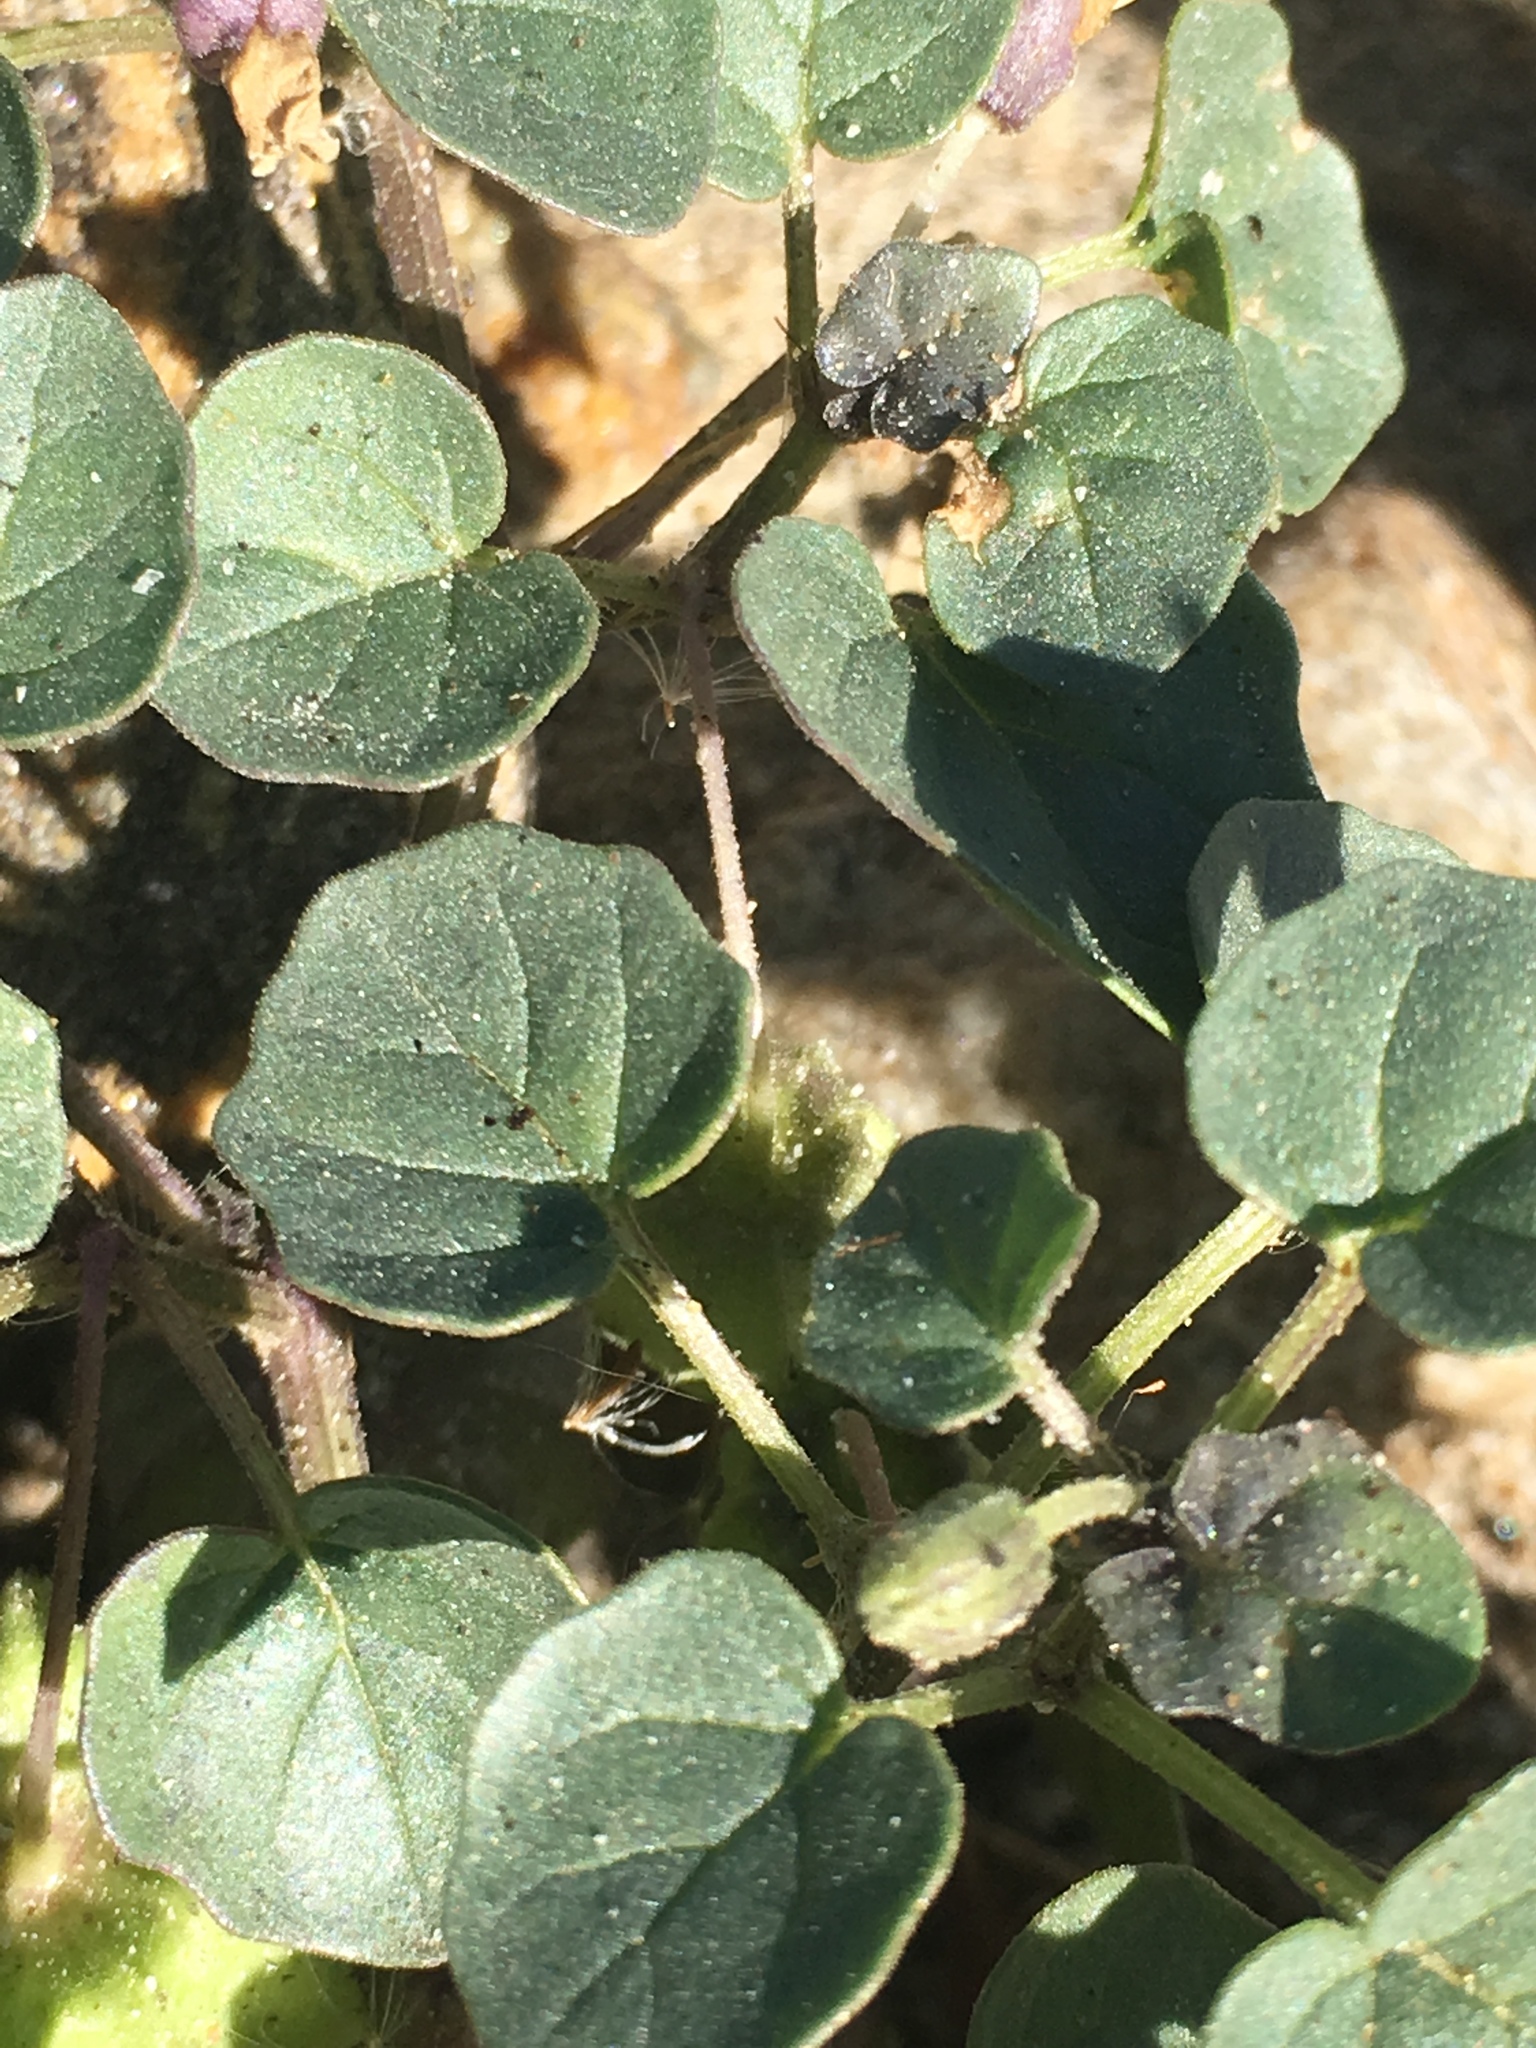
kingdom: Plantae
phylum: Tracheophyta
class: Magnoliopsida
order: Solanales
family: Solanaceae
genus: Physalis
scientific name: Physalis crassifolia
